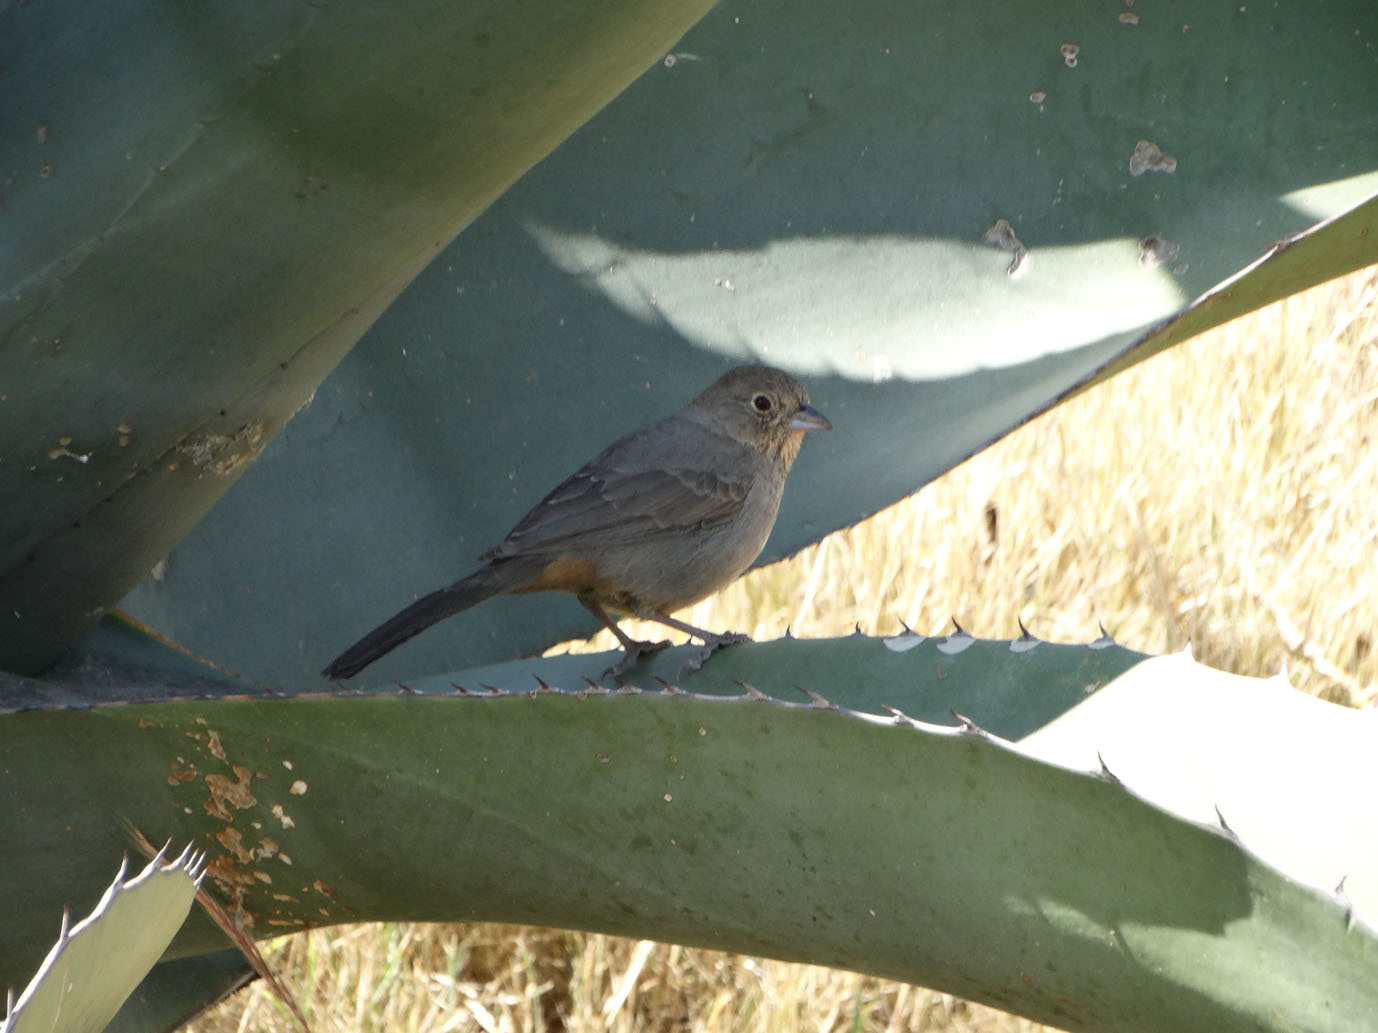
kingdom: Animalia
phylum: Chordata
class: Aves
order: Passeriformes
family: Passerellidae
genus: Melozone
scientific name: Melozone fusca
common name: Canyon towhee
